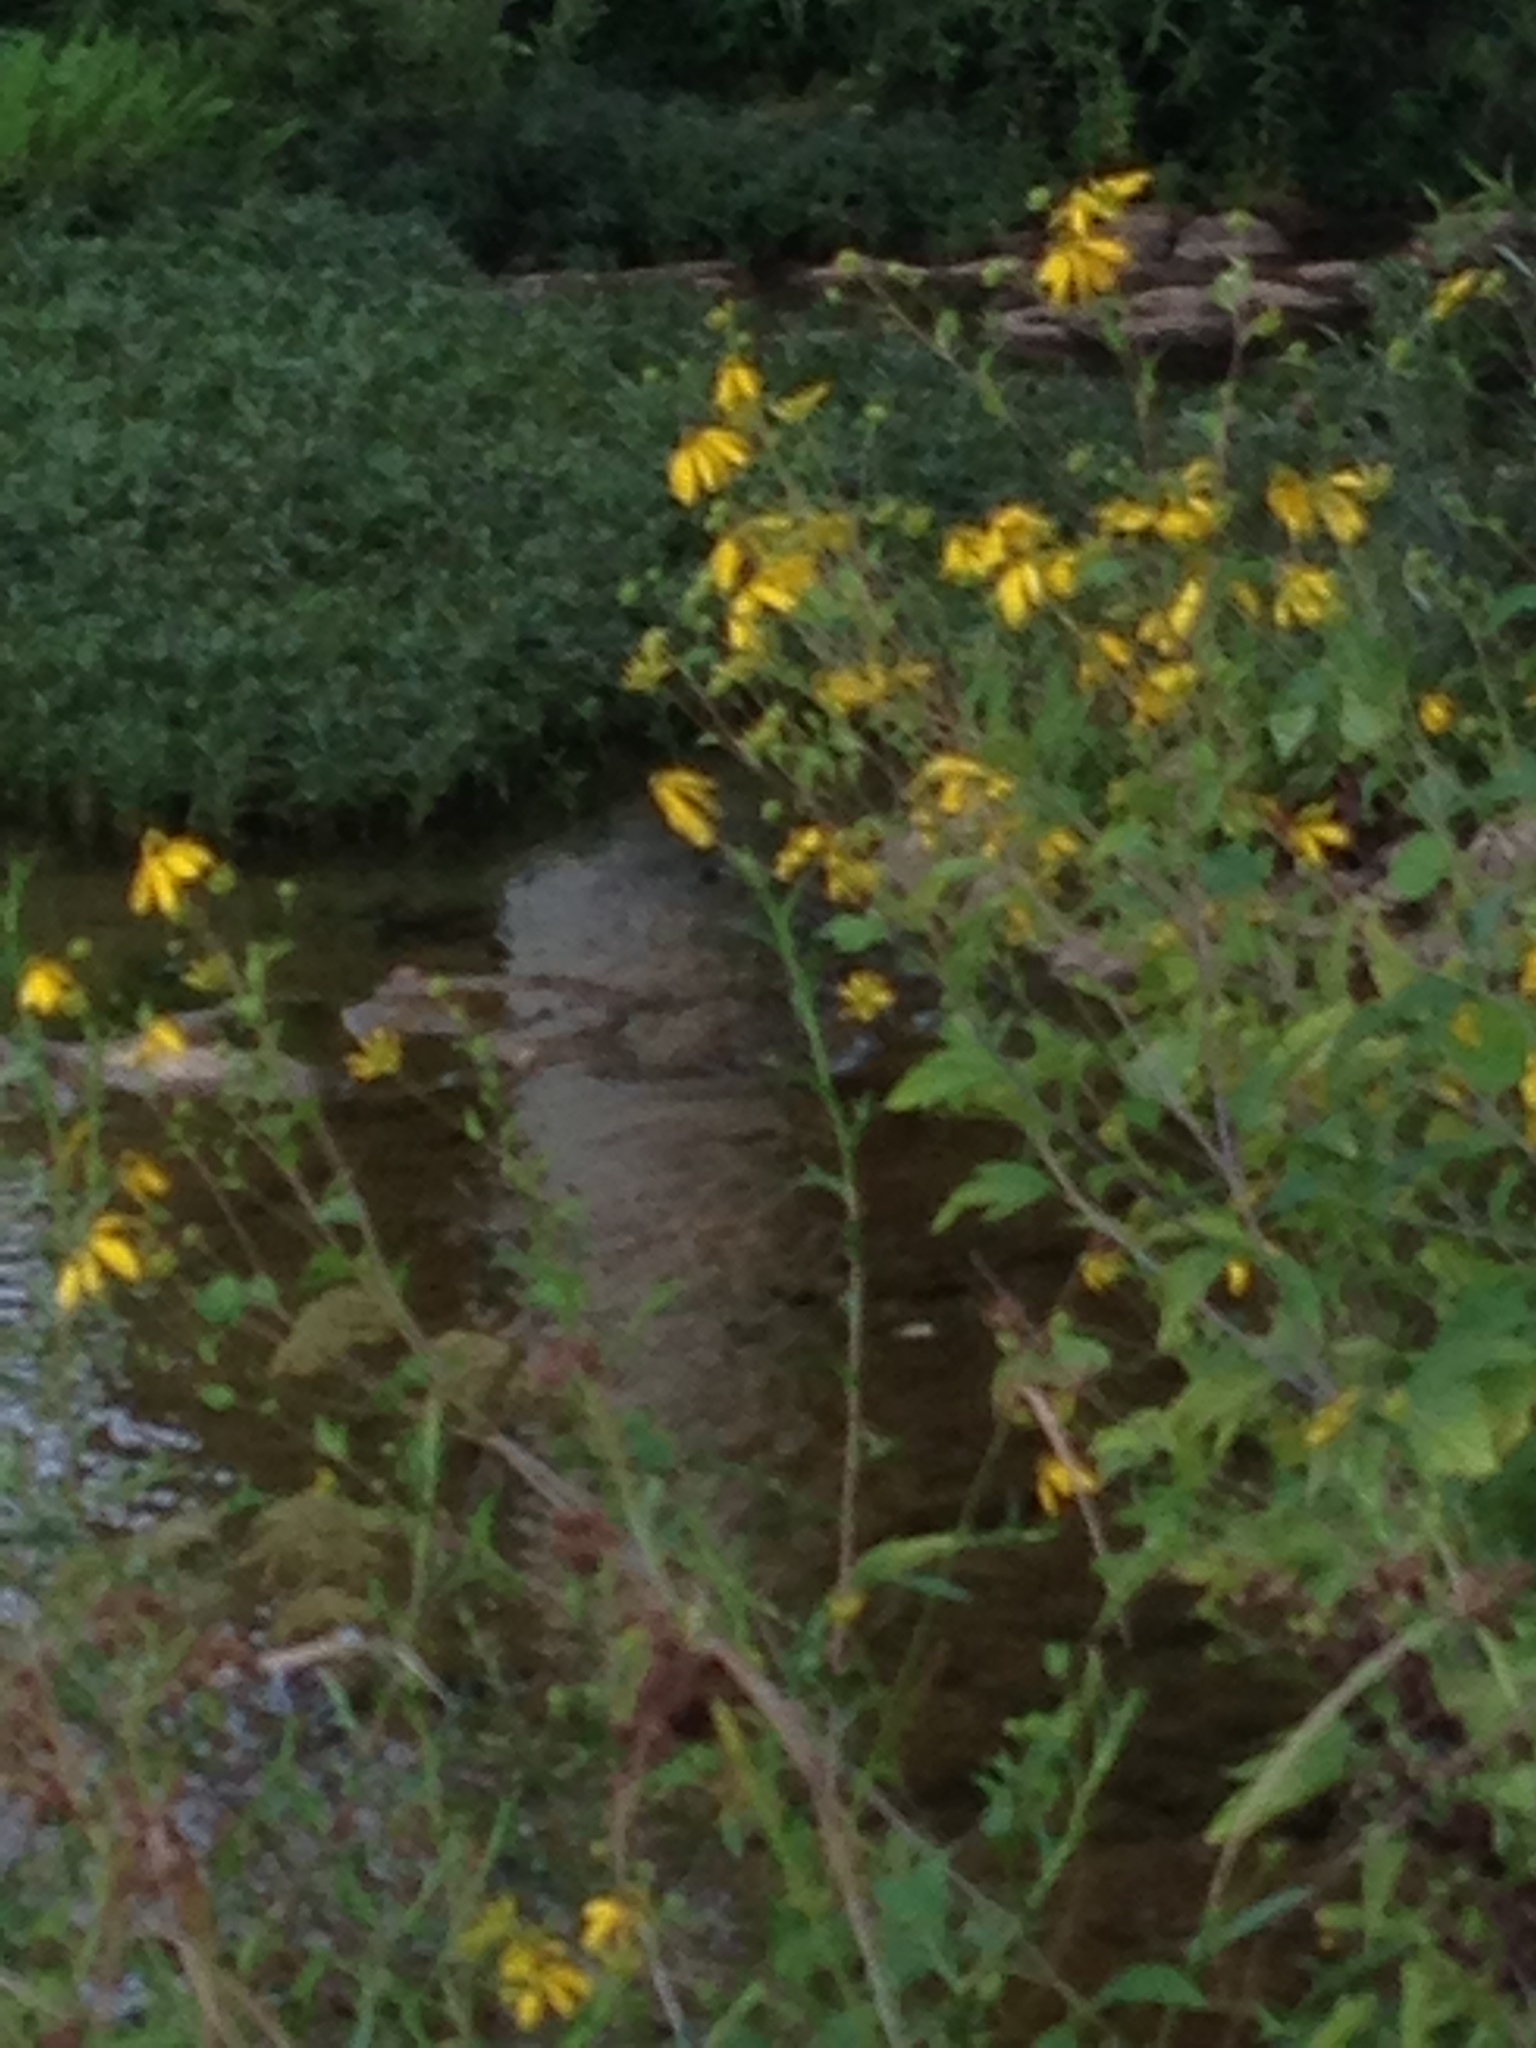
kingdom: Plantae
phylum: Tracheophyta
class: Magnoliopsida
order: Asterales
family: Asteraceae
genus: Rudbeckia
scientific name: Rudbeckia laciniata
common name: Coneflower
